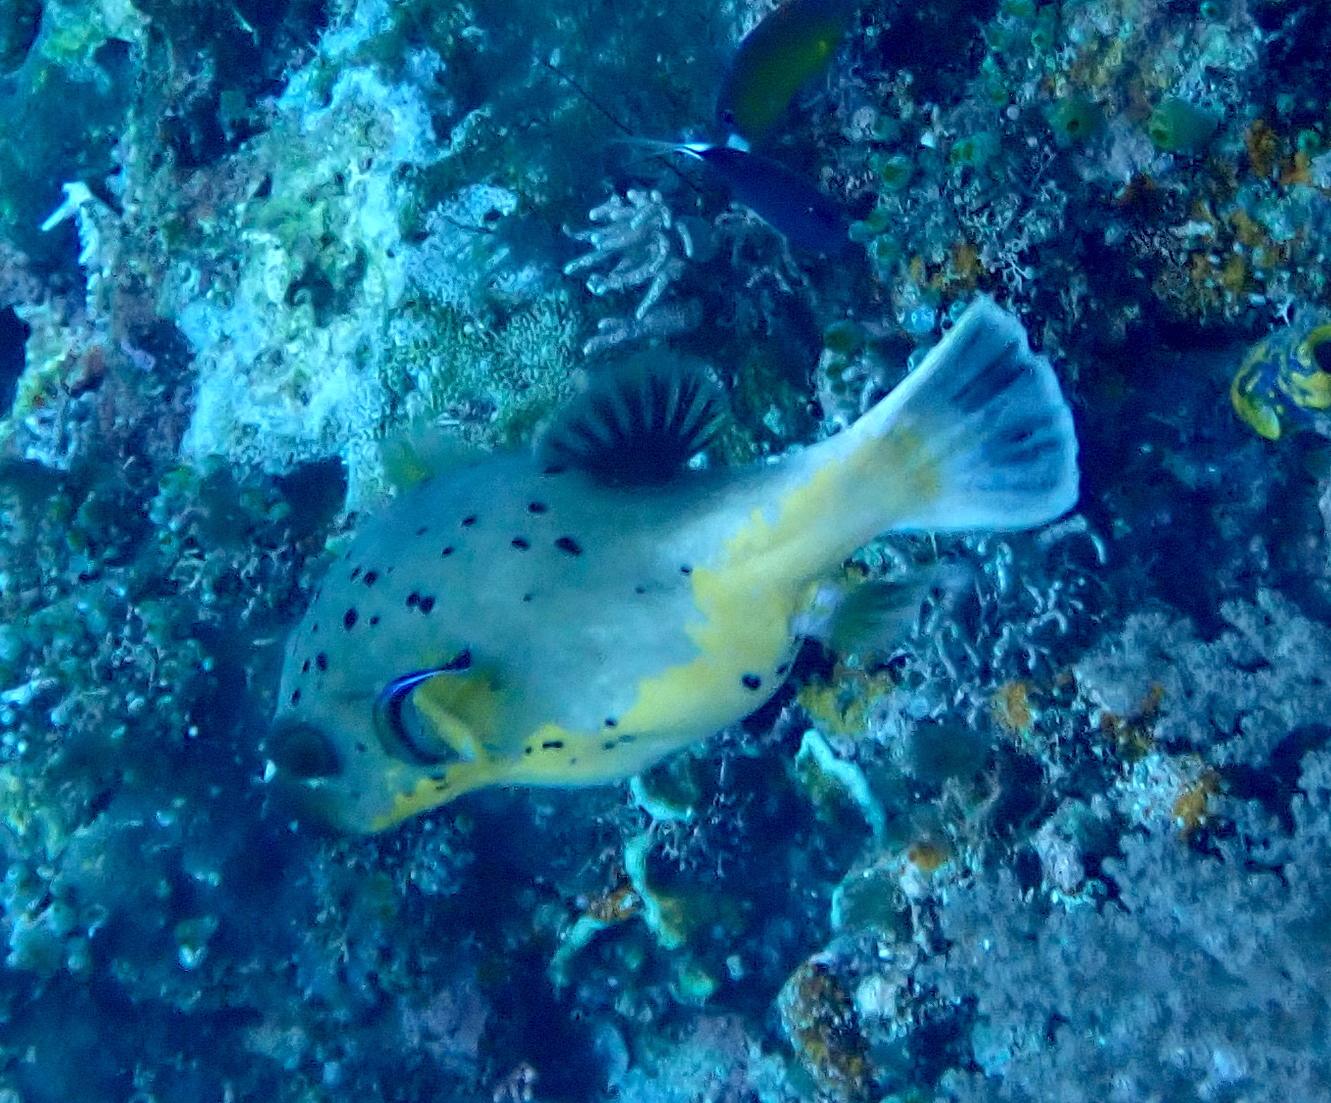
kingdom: Animalia
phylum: Chordata
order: Tetraodontiformes
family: Tetraodontidae
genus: Arothron
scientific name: Arothron nigropunctatus
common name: Black spotted blow fish
